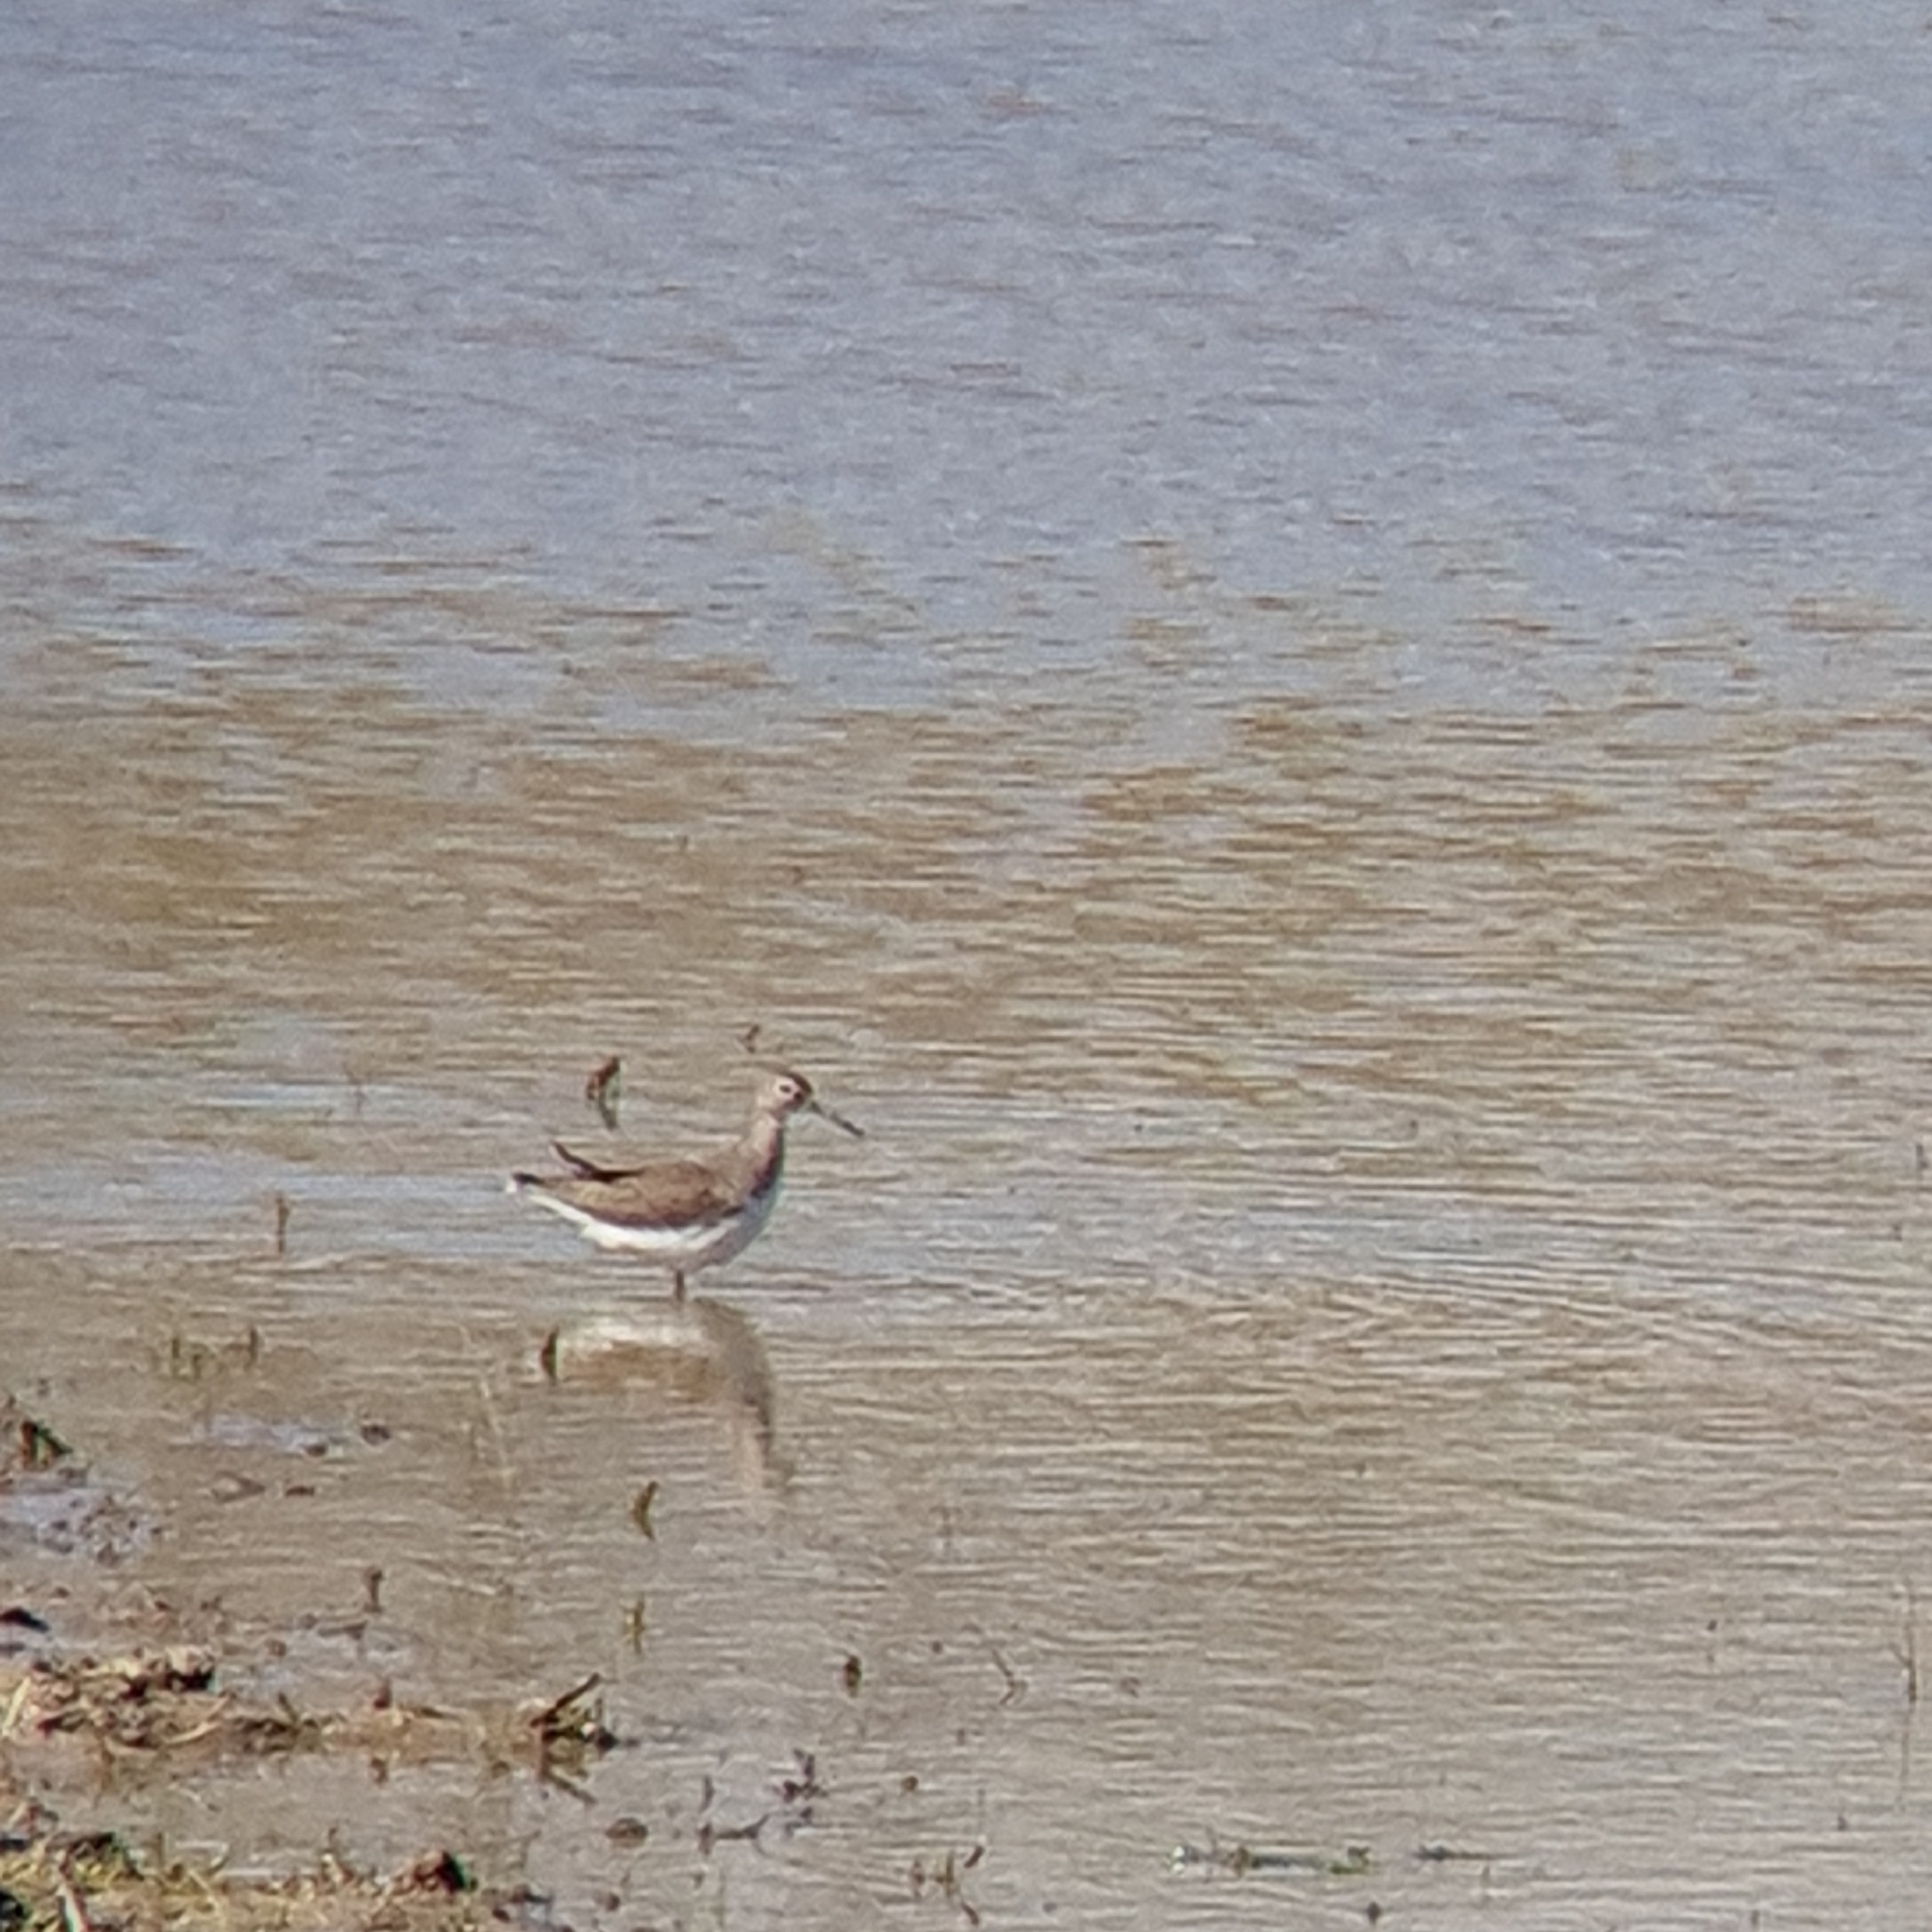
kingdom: Animalia
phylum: Chordata
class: Aves
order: Charadriiformes
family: Scolopacidae
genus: Tringa
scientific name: Tringa ochropus
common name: Green sandpiper
